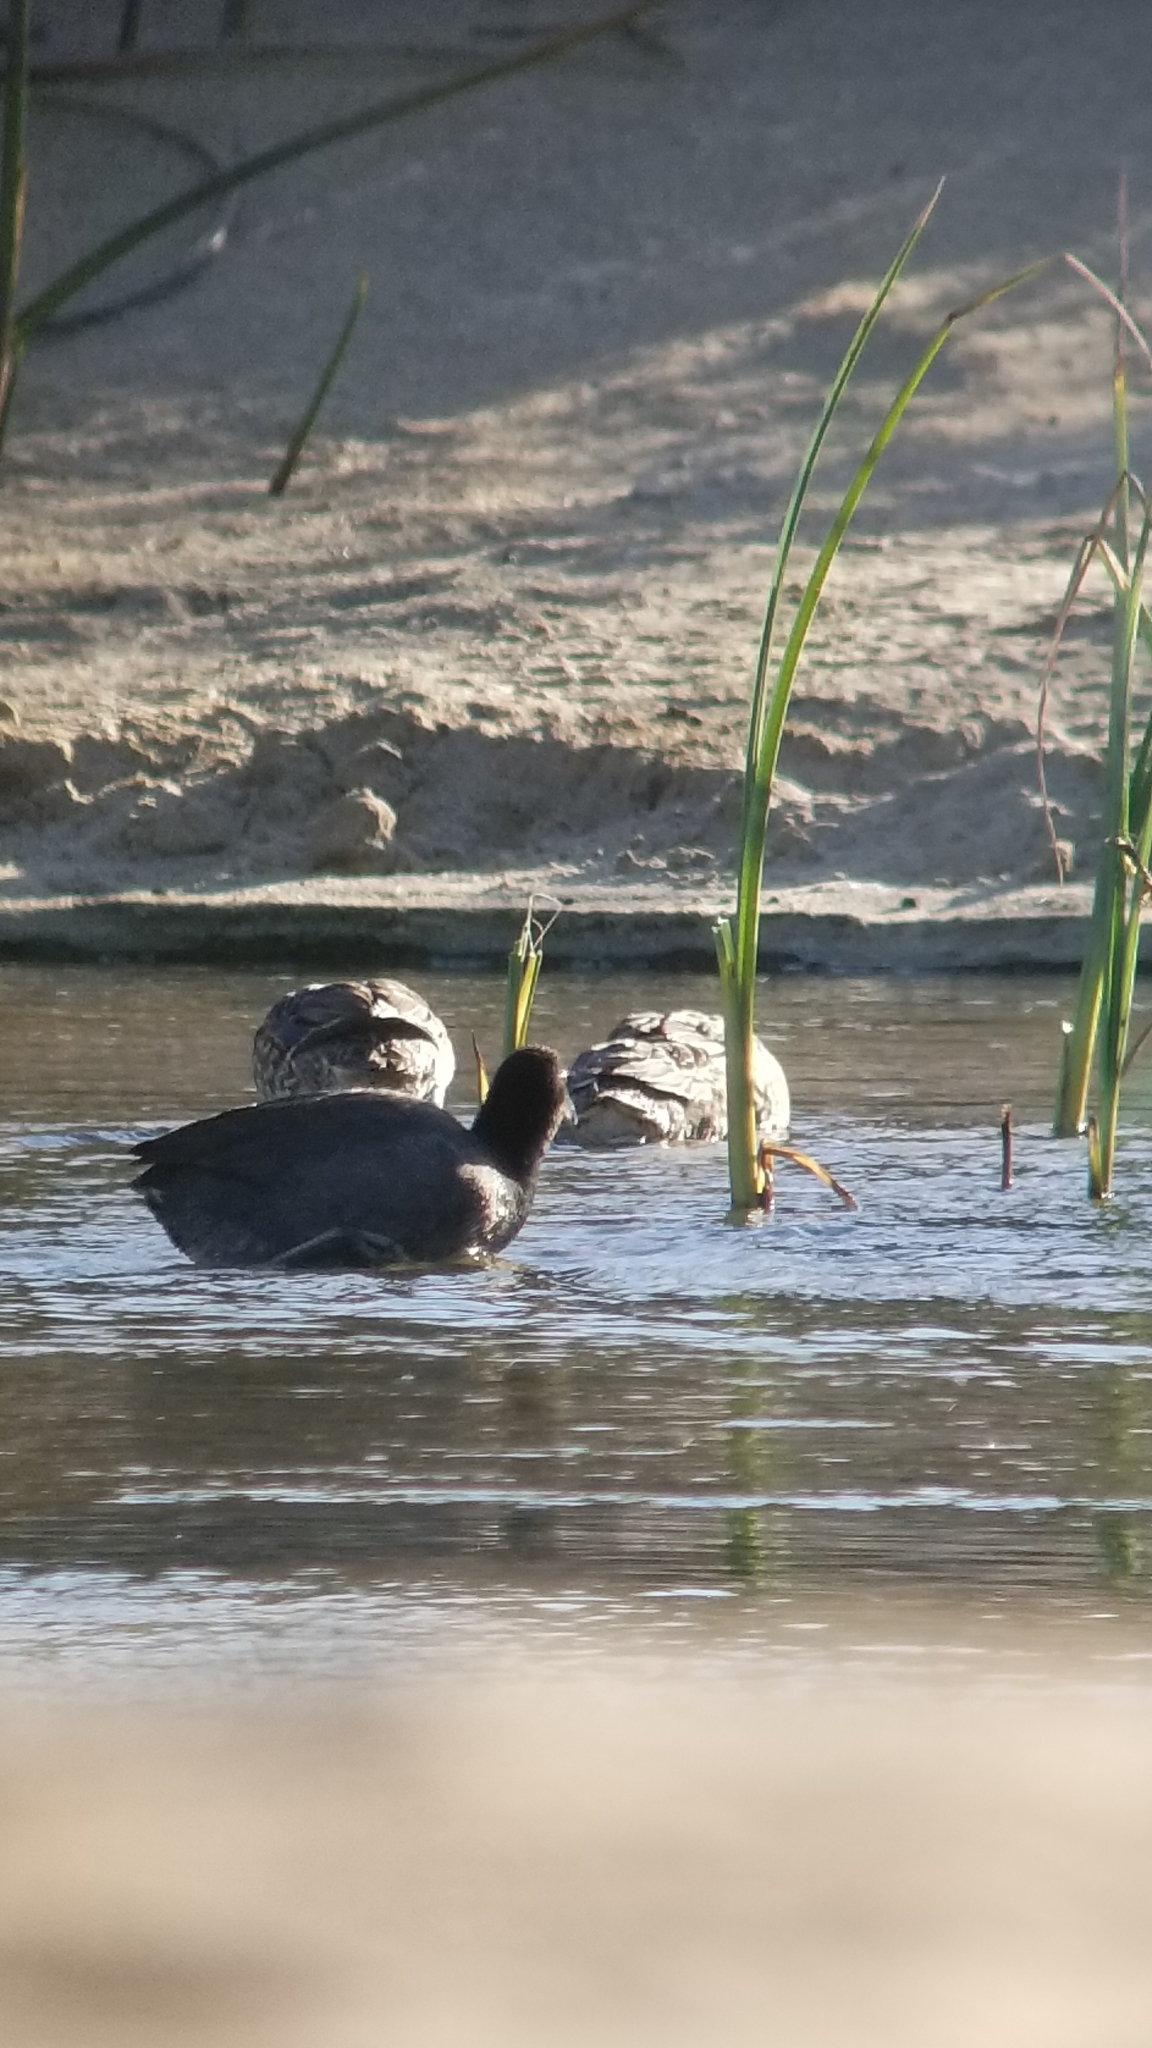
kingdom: Animalia
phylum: Chordata
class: Aves
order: Gruiformes
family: Rallidae
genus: Fulica
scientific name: Fulica americana
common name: American coot
